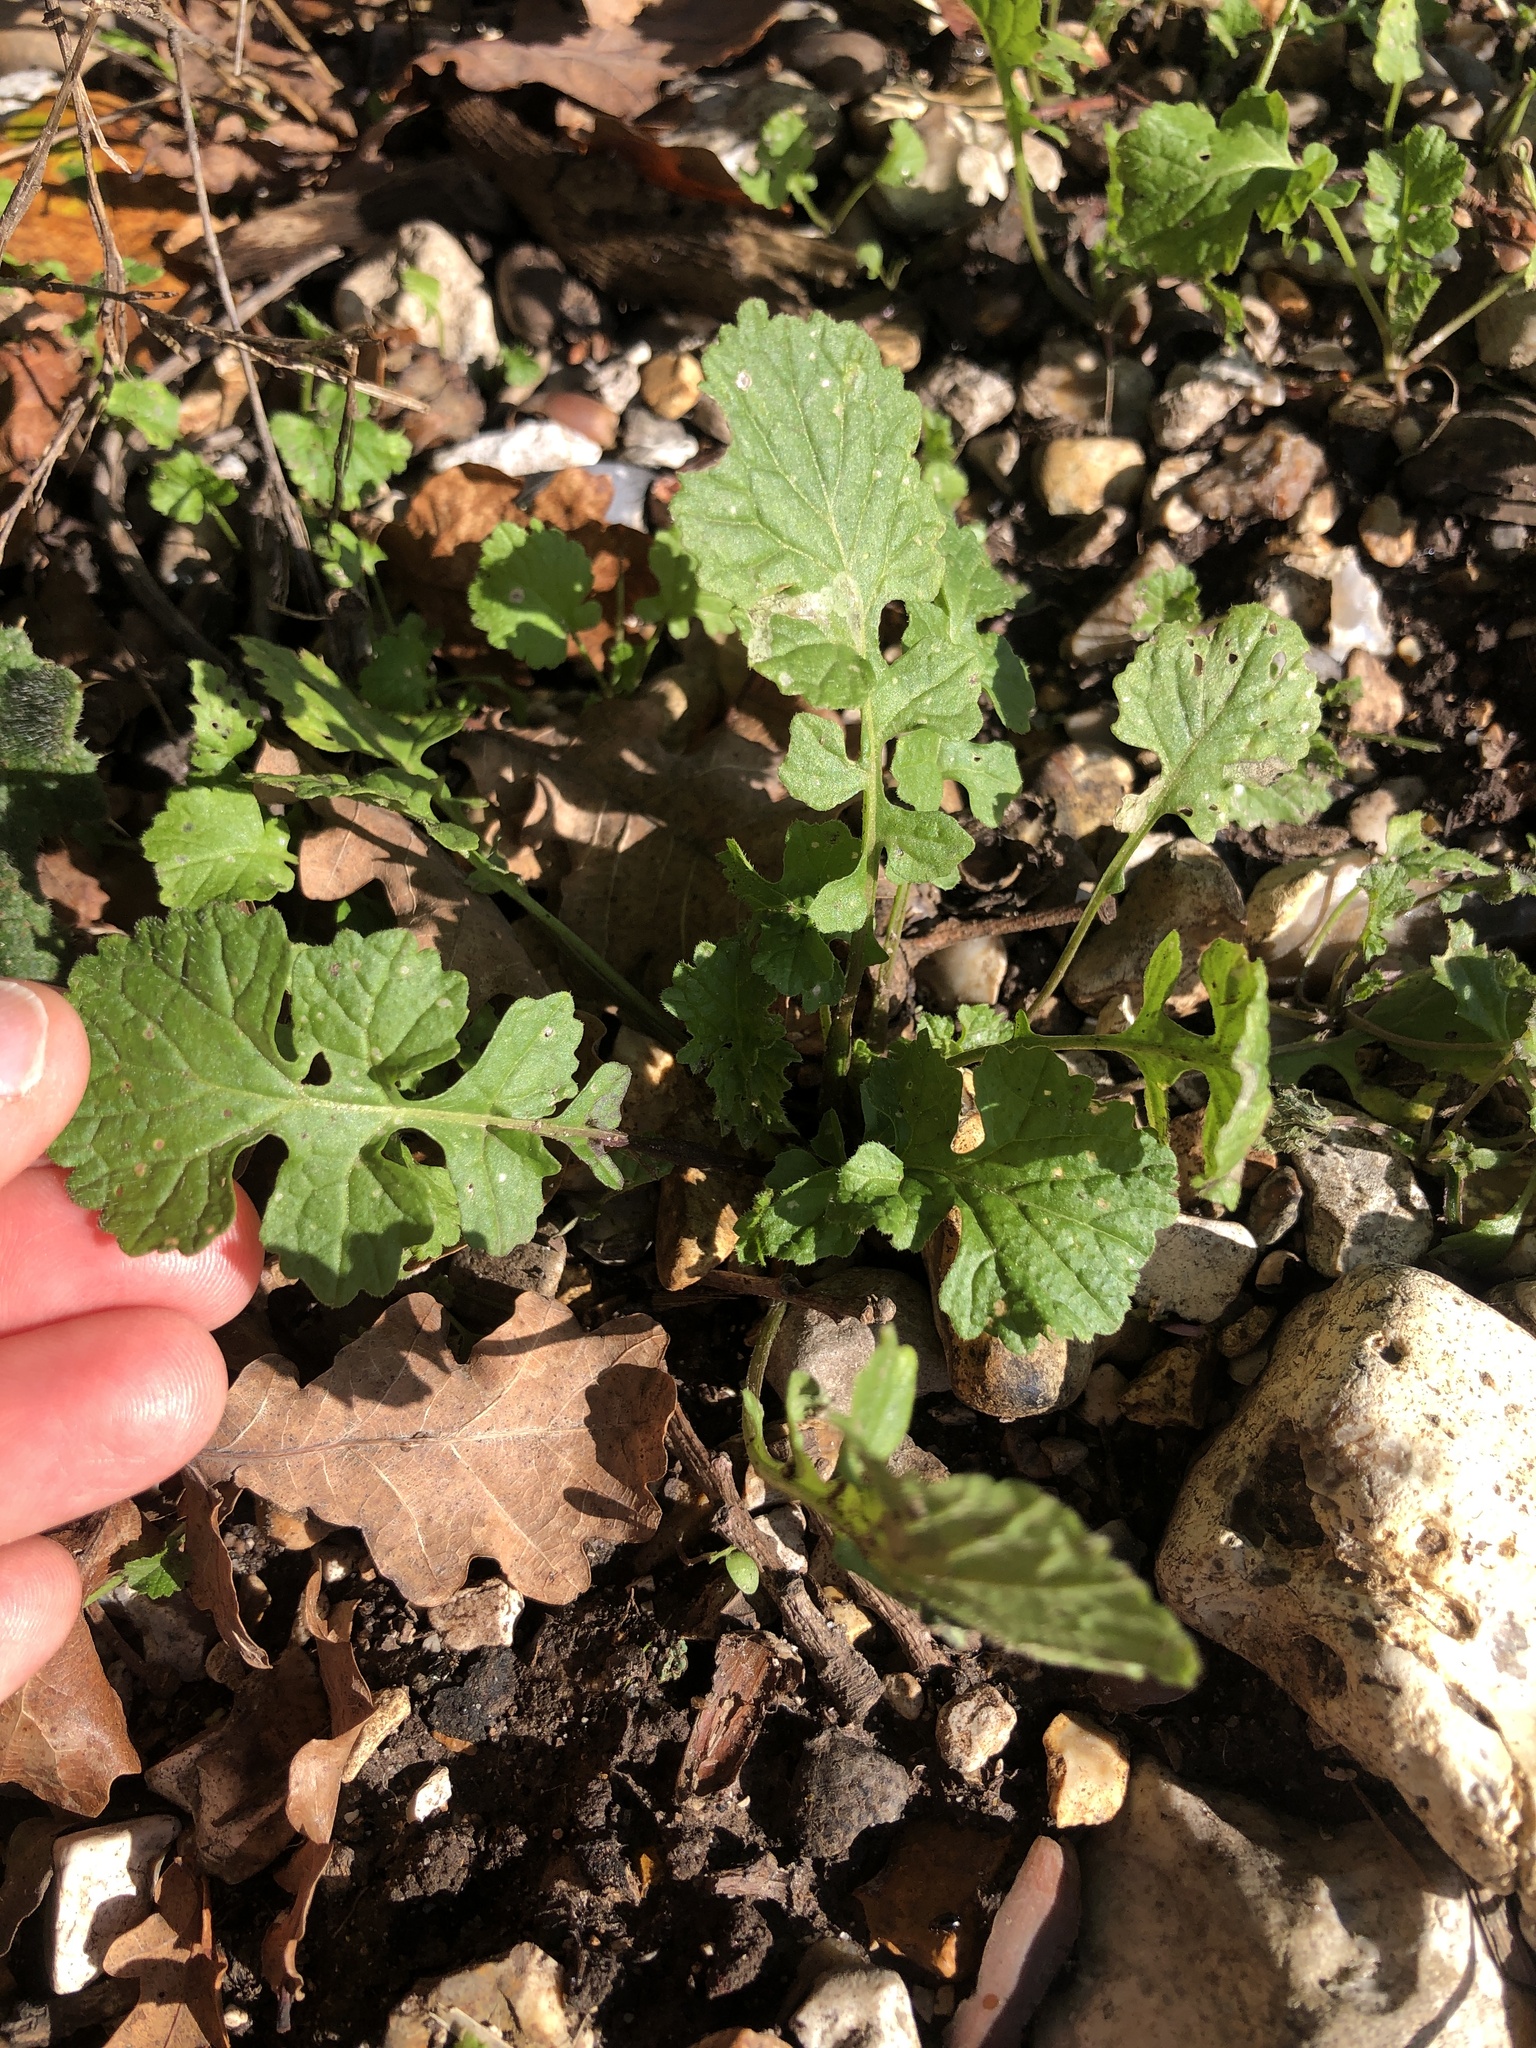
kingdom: Plantae
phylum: Tracheophyta
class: Magnoliopsida
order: Brassicales
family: Brassicaceae
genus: Sisymbrium
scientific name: Sisymbrium officinale
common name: Hedge mustard
